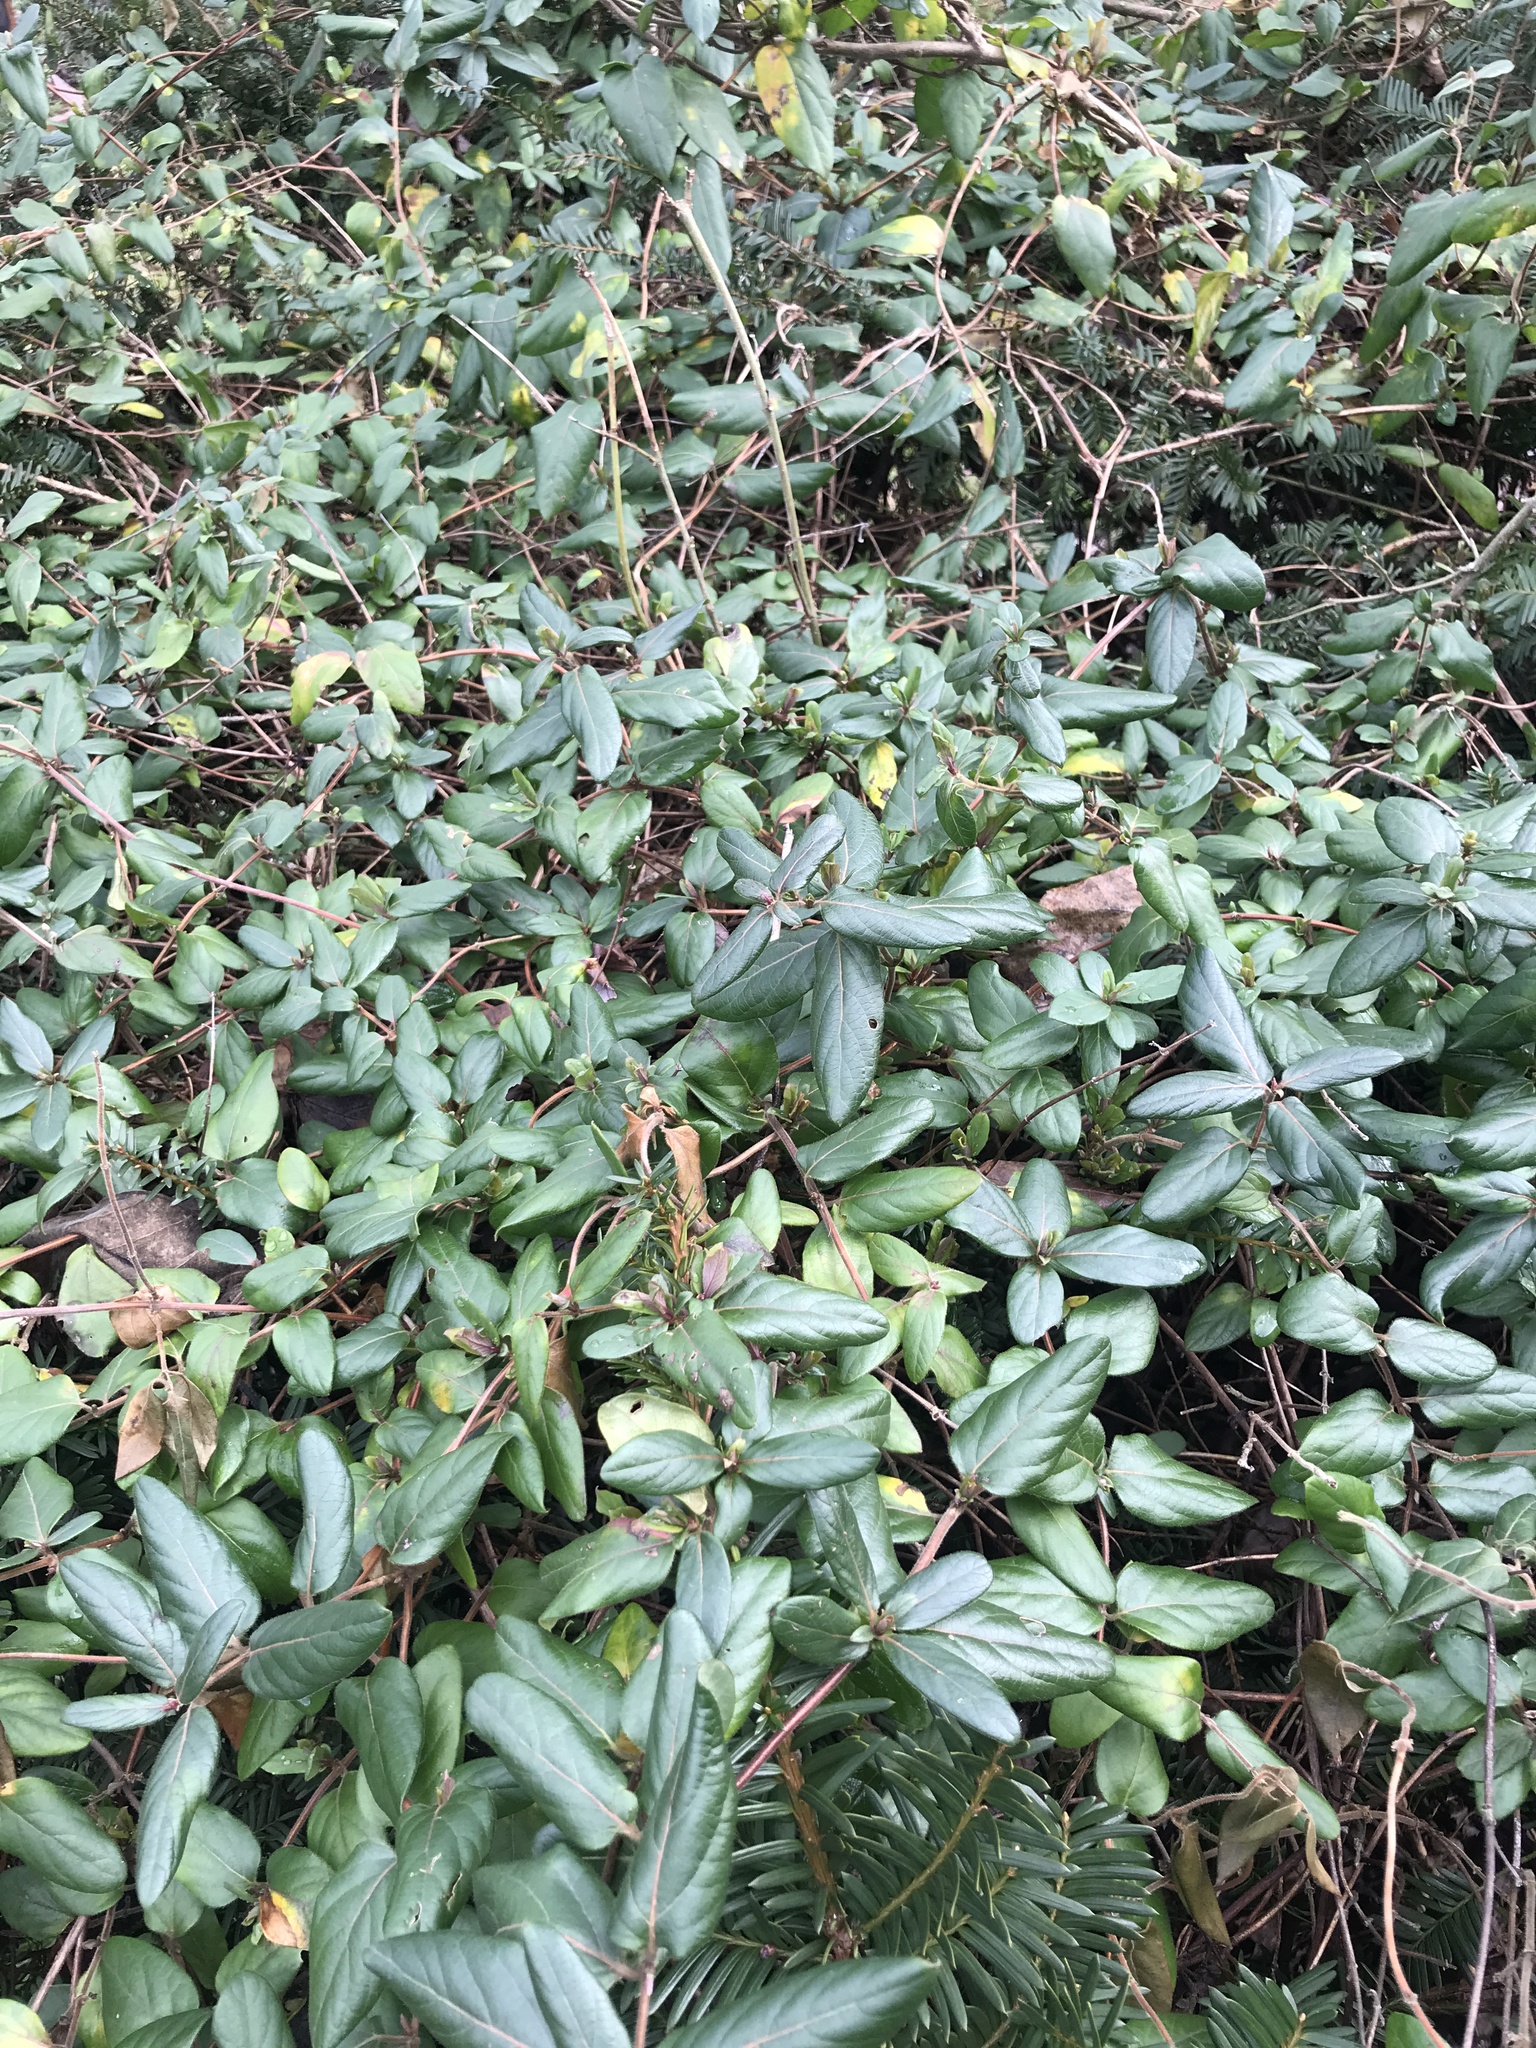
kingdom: Plantae
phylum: Tracheophyta
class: Magnoliopsida
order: Dipsacales
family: Caprifoliaceae
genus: Lonicera
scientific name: Lonicera japonica
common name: Japanese honeysuckle
